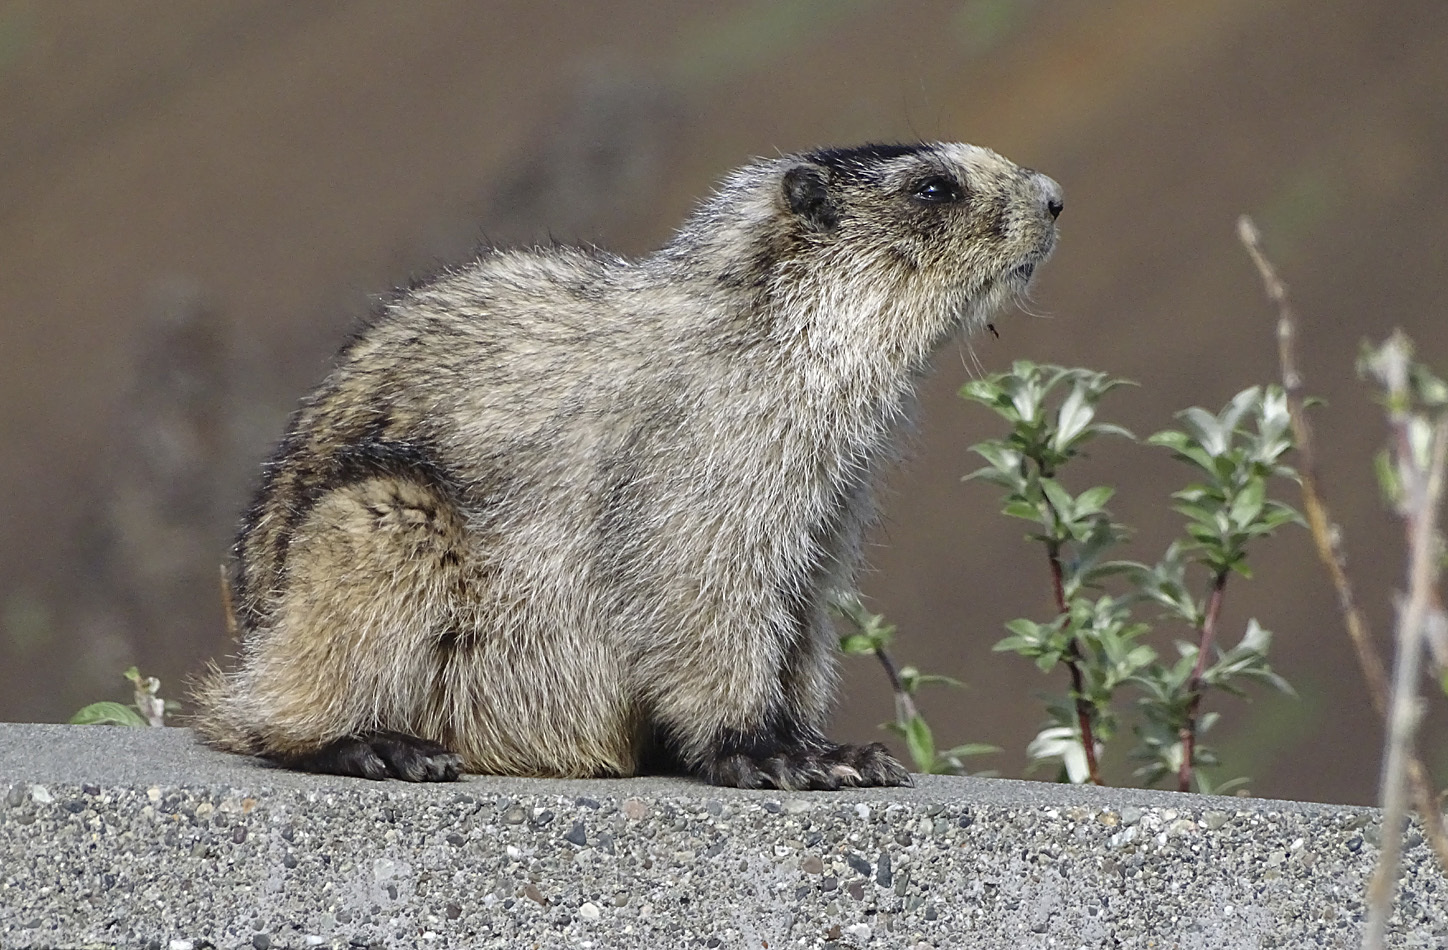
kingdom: Animalia
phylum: Chordata
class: Mammalia
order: Rodentia
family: Sciuridae
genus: Marmota
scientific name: Marmota caligata
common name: Hoary marmot
